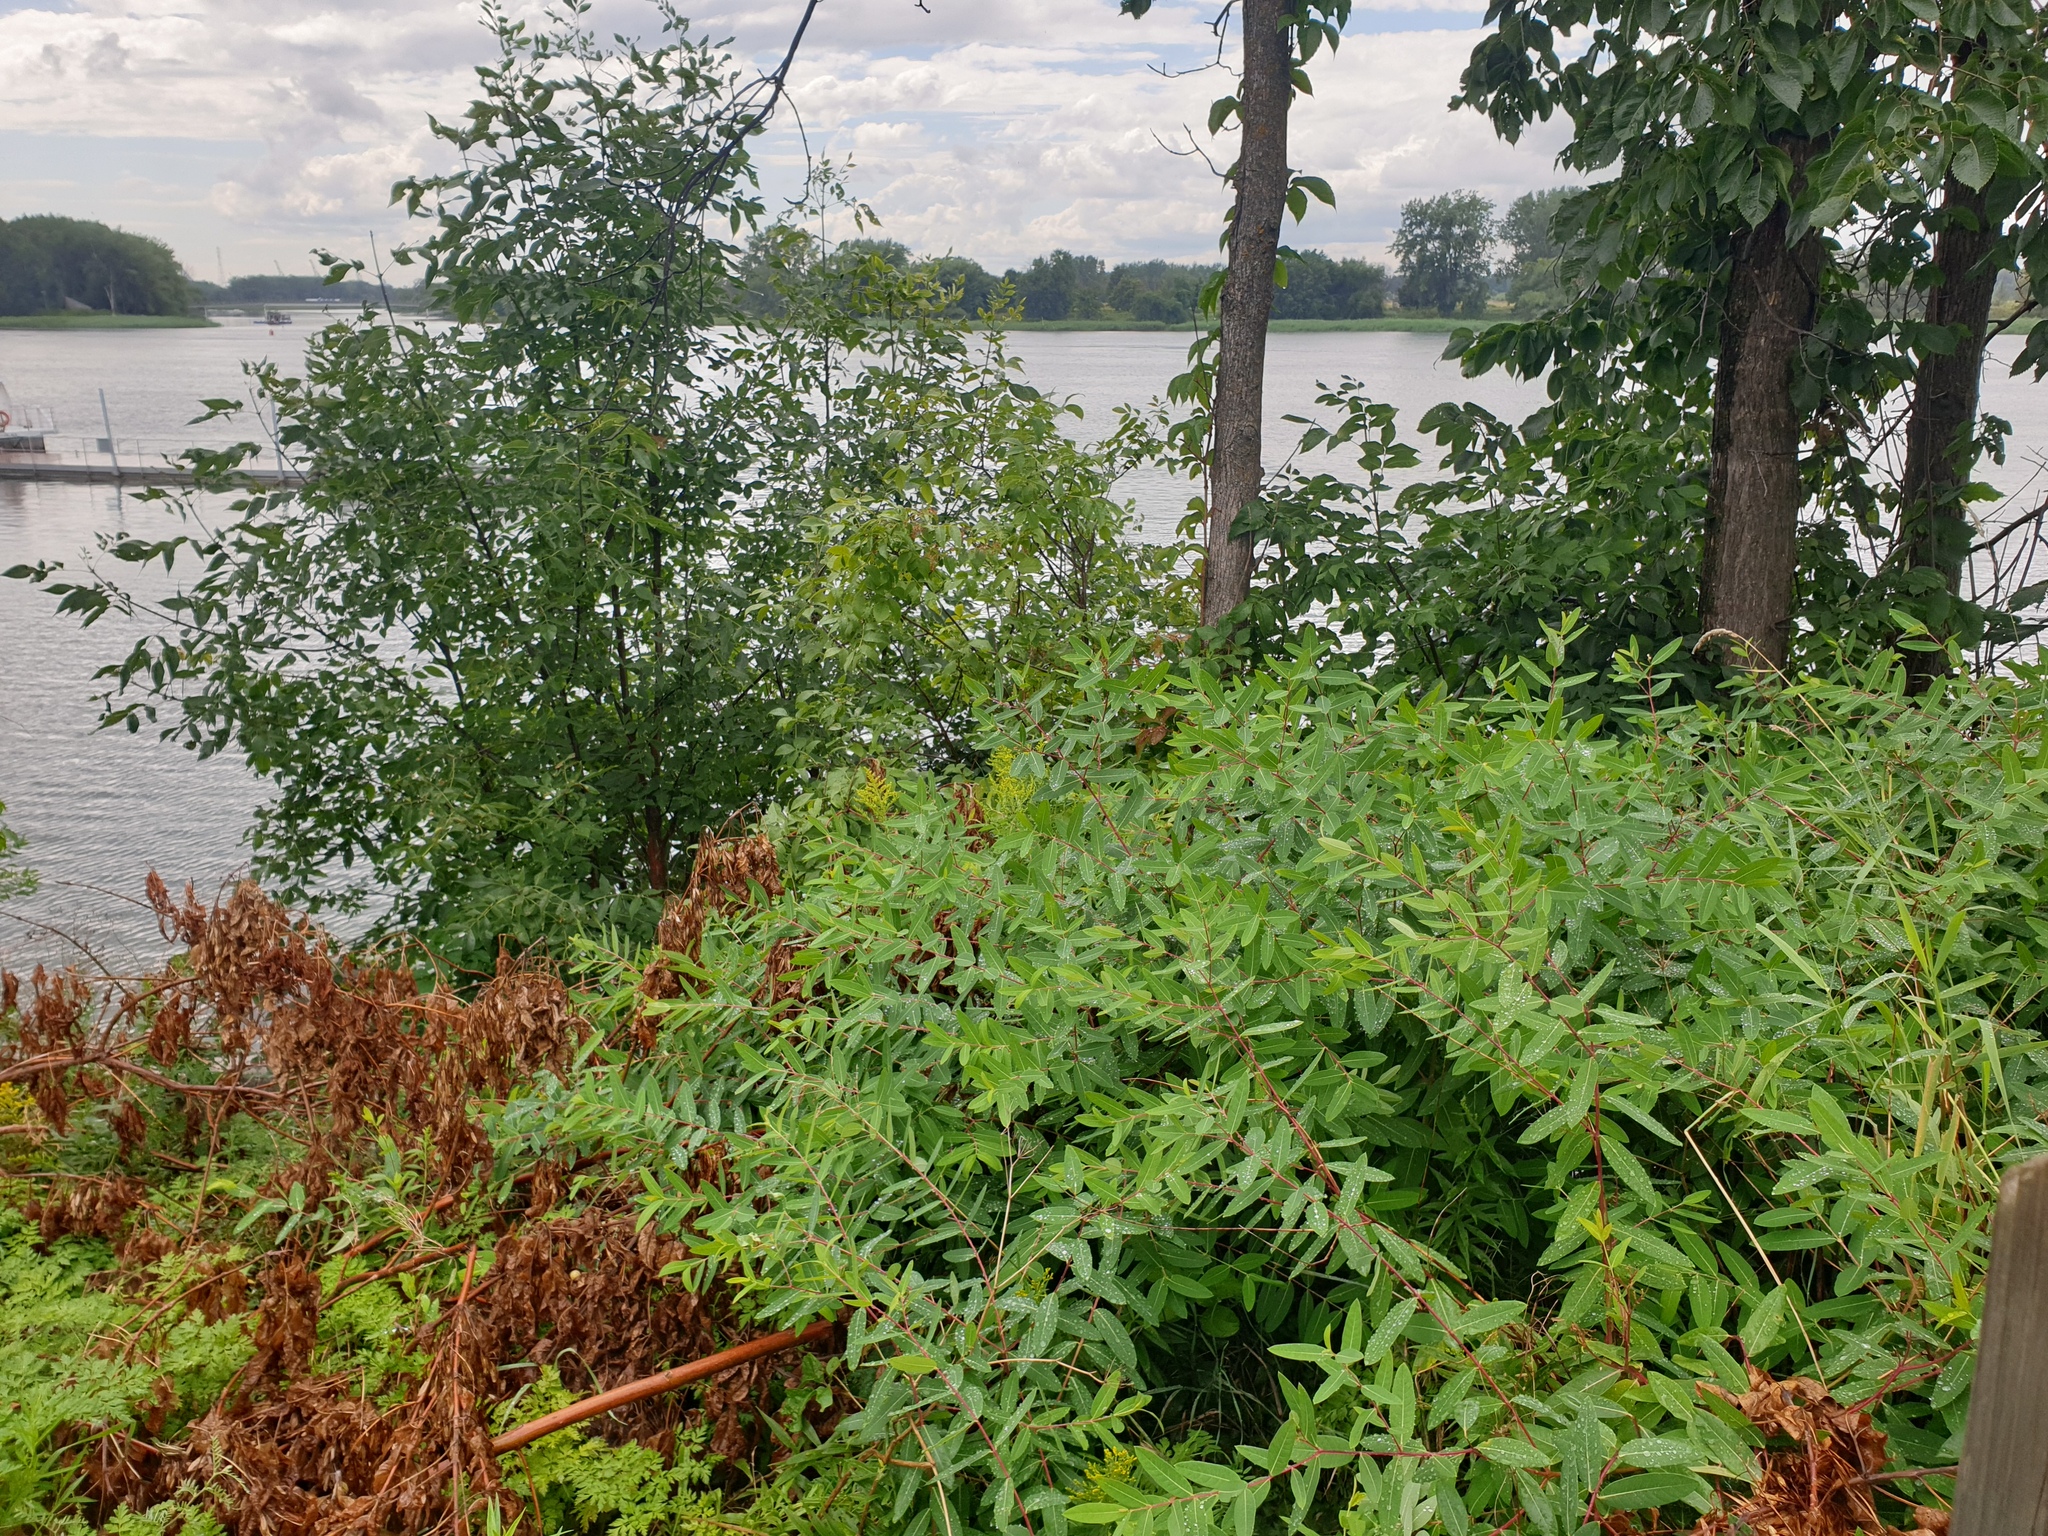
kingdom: Plantae
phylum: Tracheophyta
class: Magnoliopsida
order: Gentianales
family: Apocynaceae
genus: Apocynum
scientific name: Apocynum cannabinum
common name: Hemp dogbane
